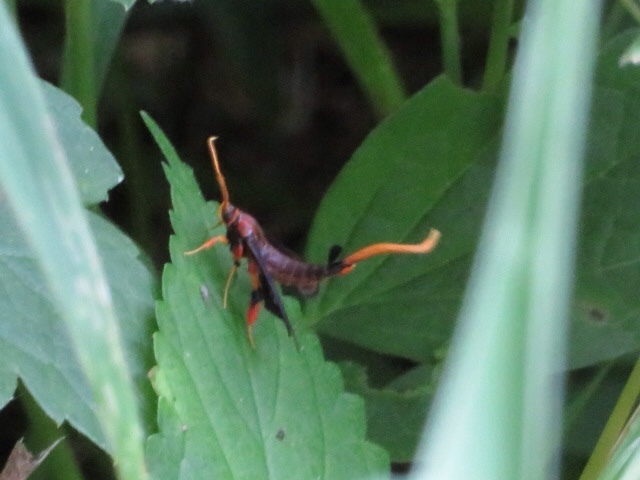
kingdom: Animalia
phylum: Arthropoda
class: Insecta
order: Lepidoptera
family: Sesiidae
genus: Alcathoe
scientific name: Alcathoe caudata
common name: Clematis clearwing moth
